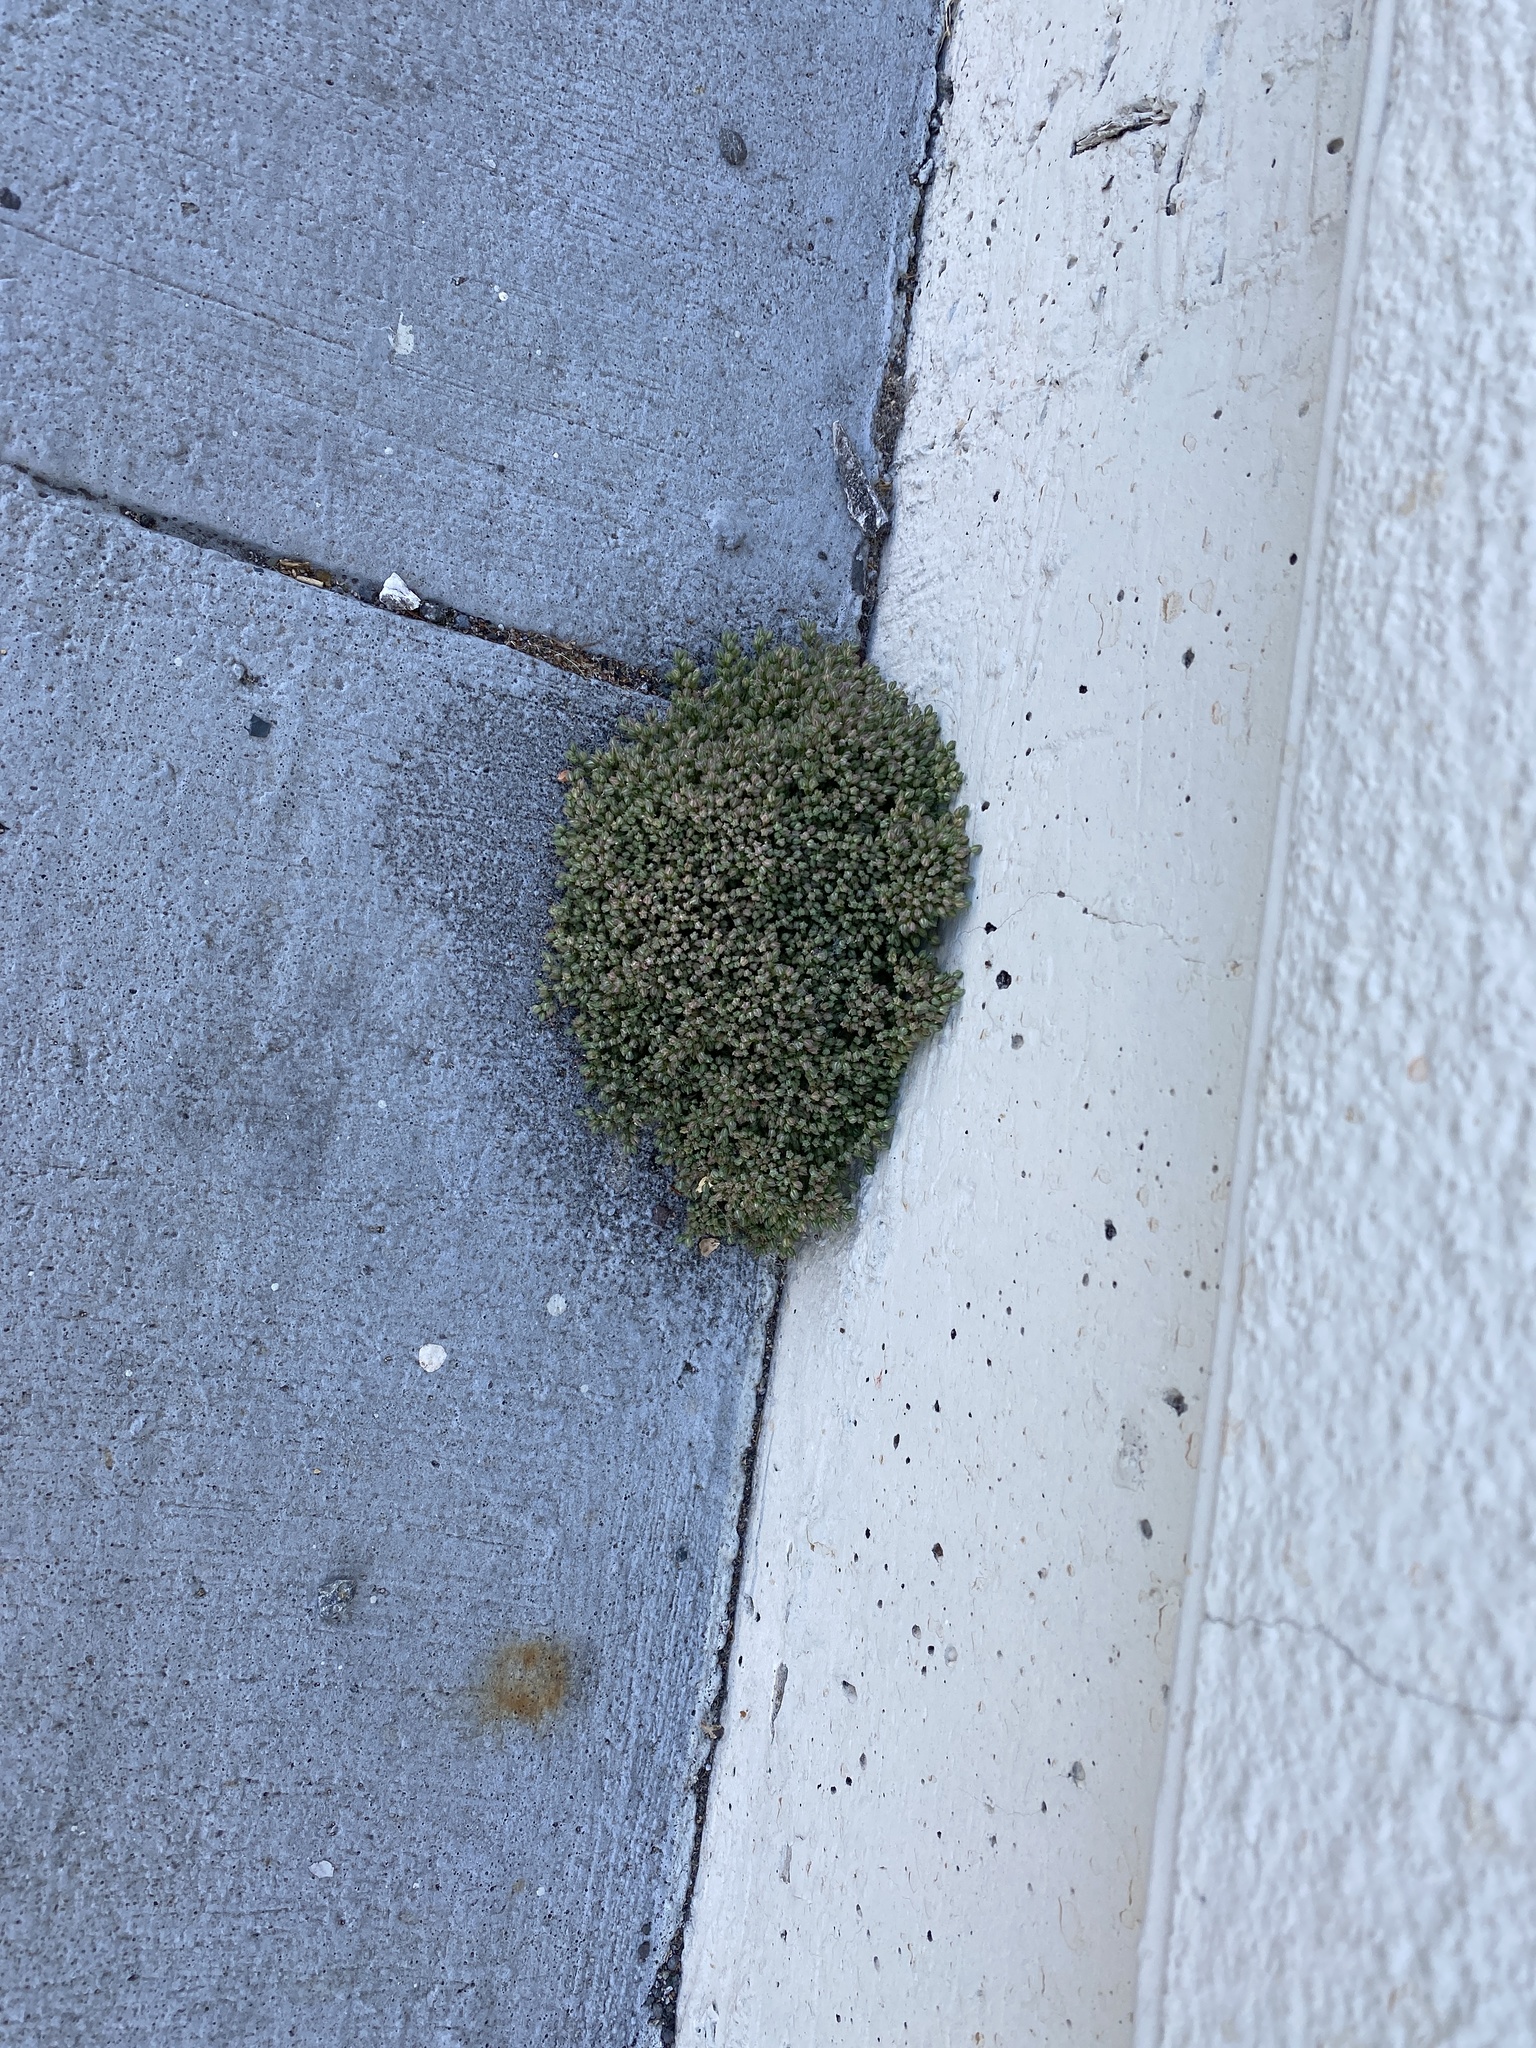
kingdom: Plantae
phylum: Tracheophyta
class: Magnoliopsida
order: Caryophyllales
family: Caryophyllaceae
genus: Polycarpon
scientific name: Polycarpon tetraphyllum
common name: Four-leaved all-seed
